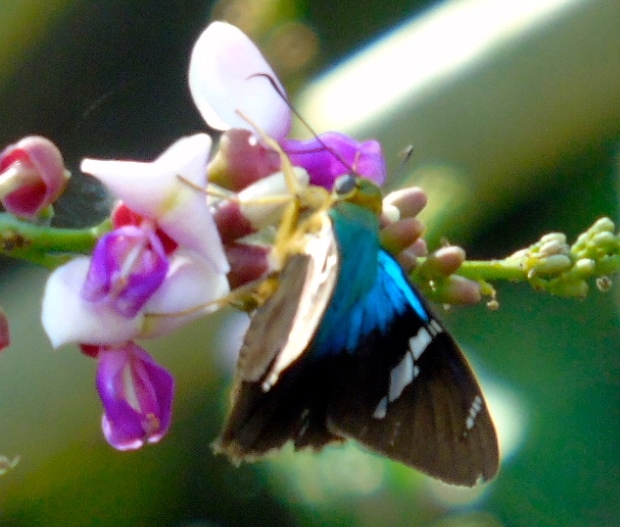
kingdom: Animalia
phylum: Arthropoda
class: Insecta
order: Lepidoptera
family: Hesperiidae
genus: Astraptes
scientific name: Astraptes fulgerator
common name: Two-barred flasher
